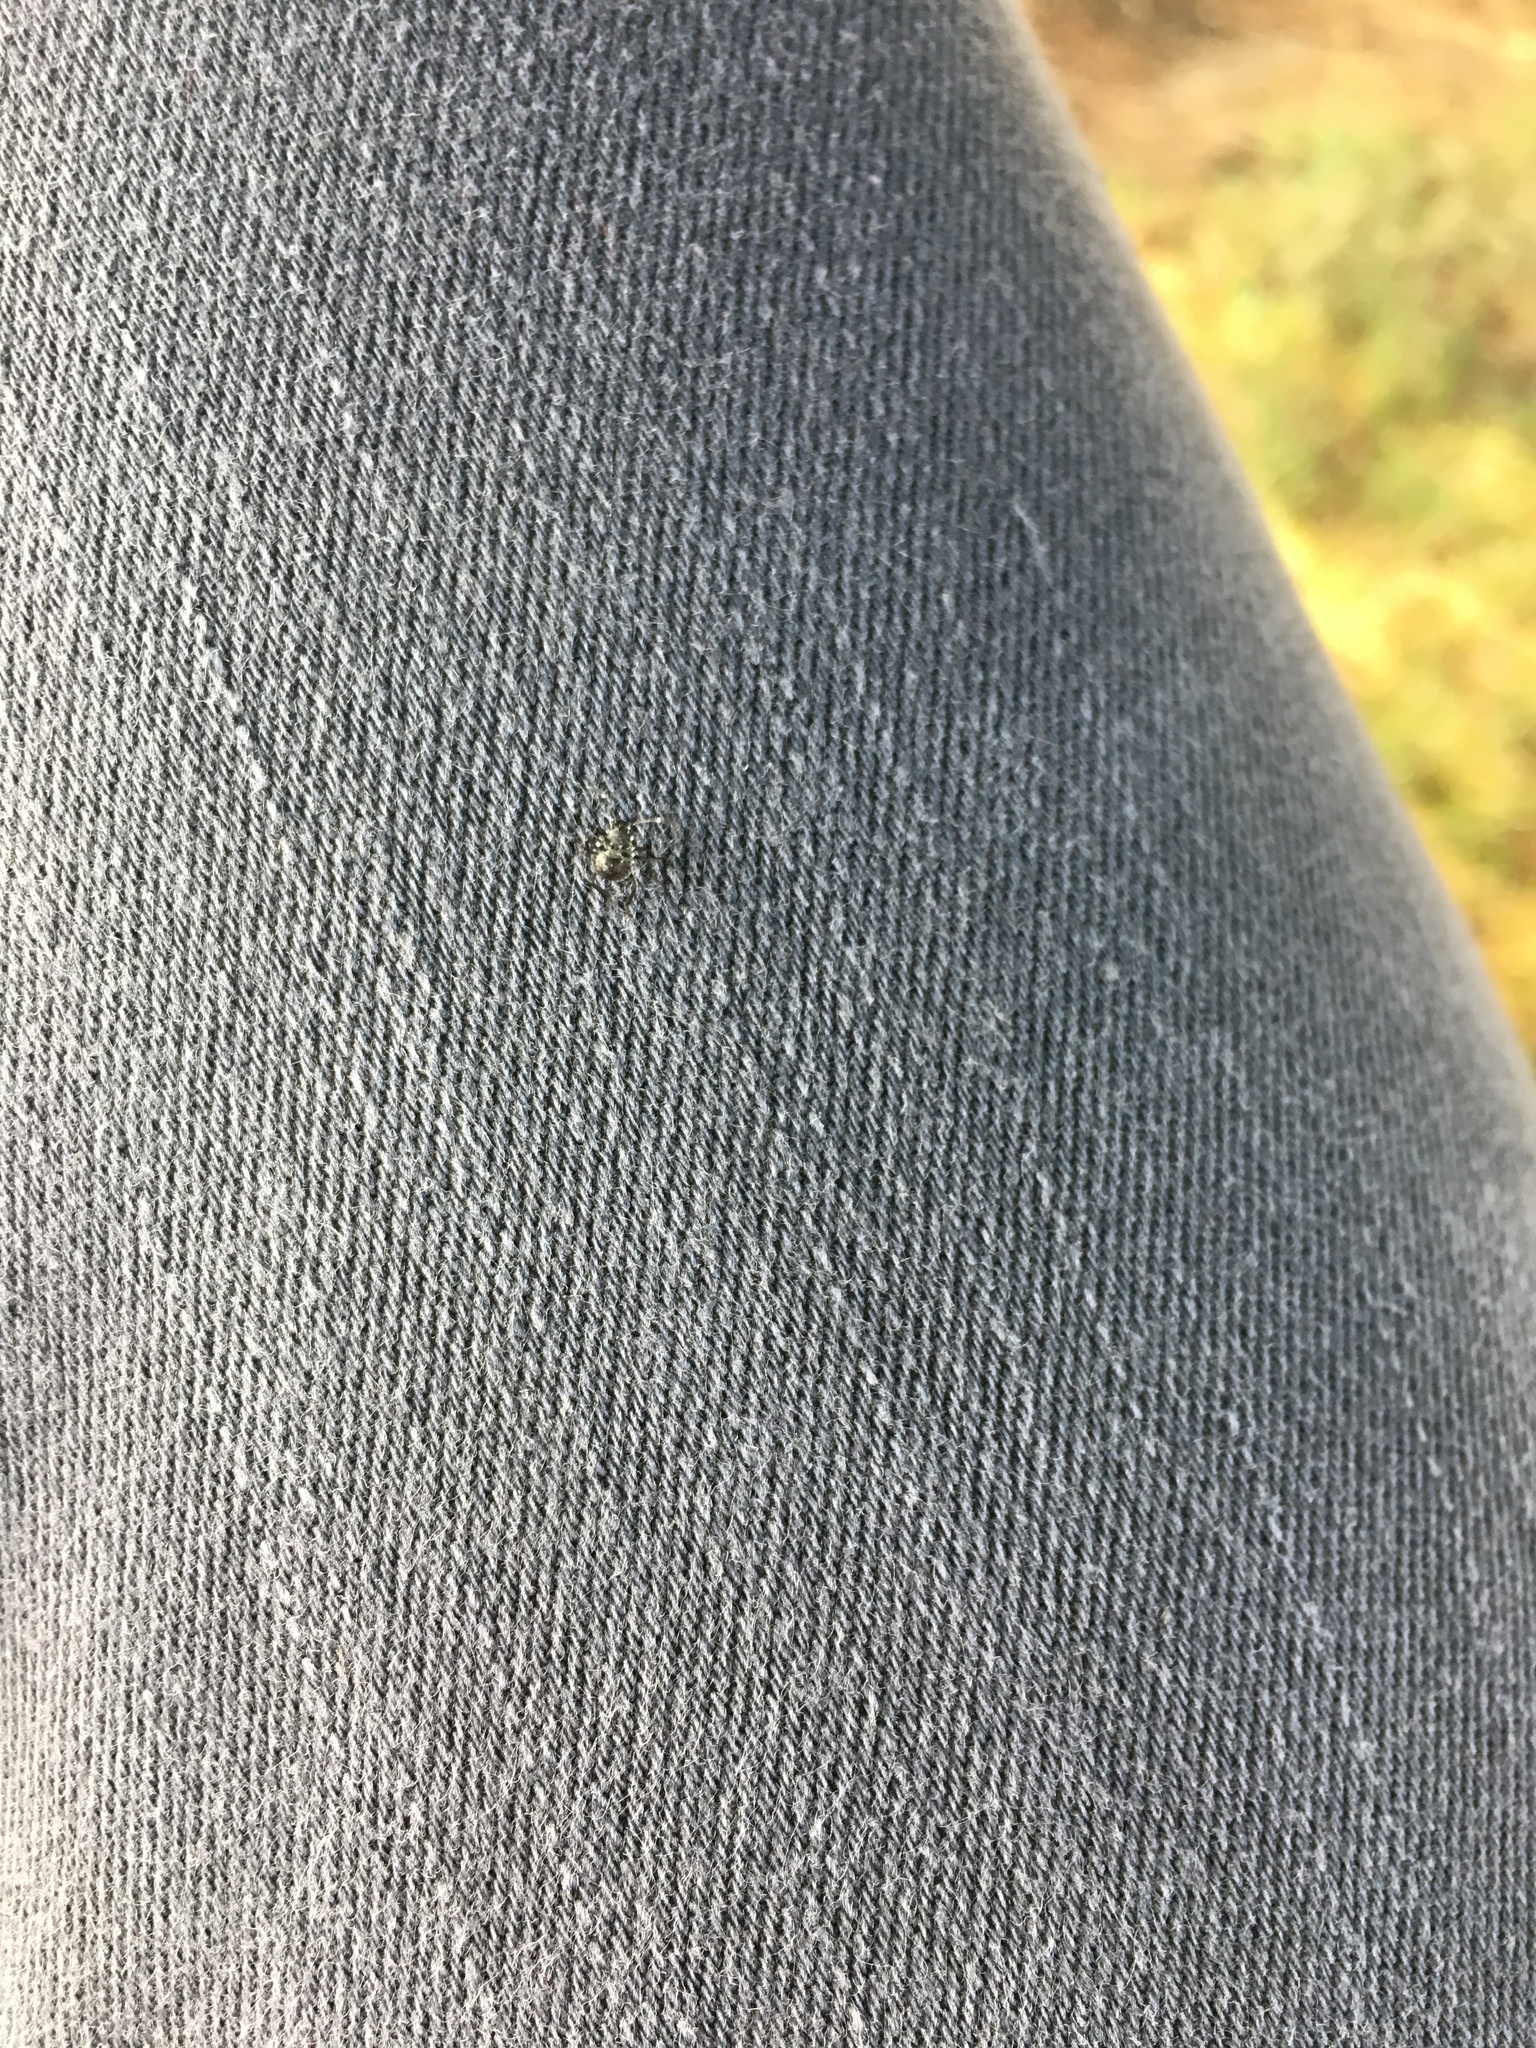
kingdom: Animalia
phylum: Arthropoda
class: Insecta
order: Hemiptera
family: Pentatomidae
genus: Halyomorpha
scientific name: Halyomorpha halys
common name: Brown marmorated stink bug
